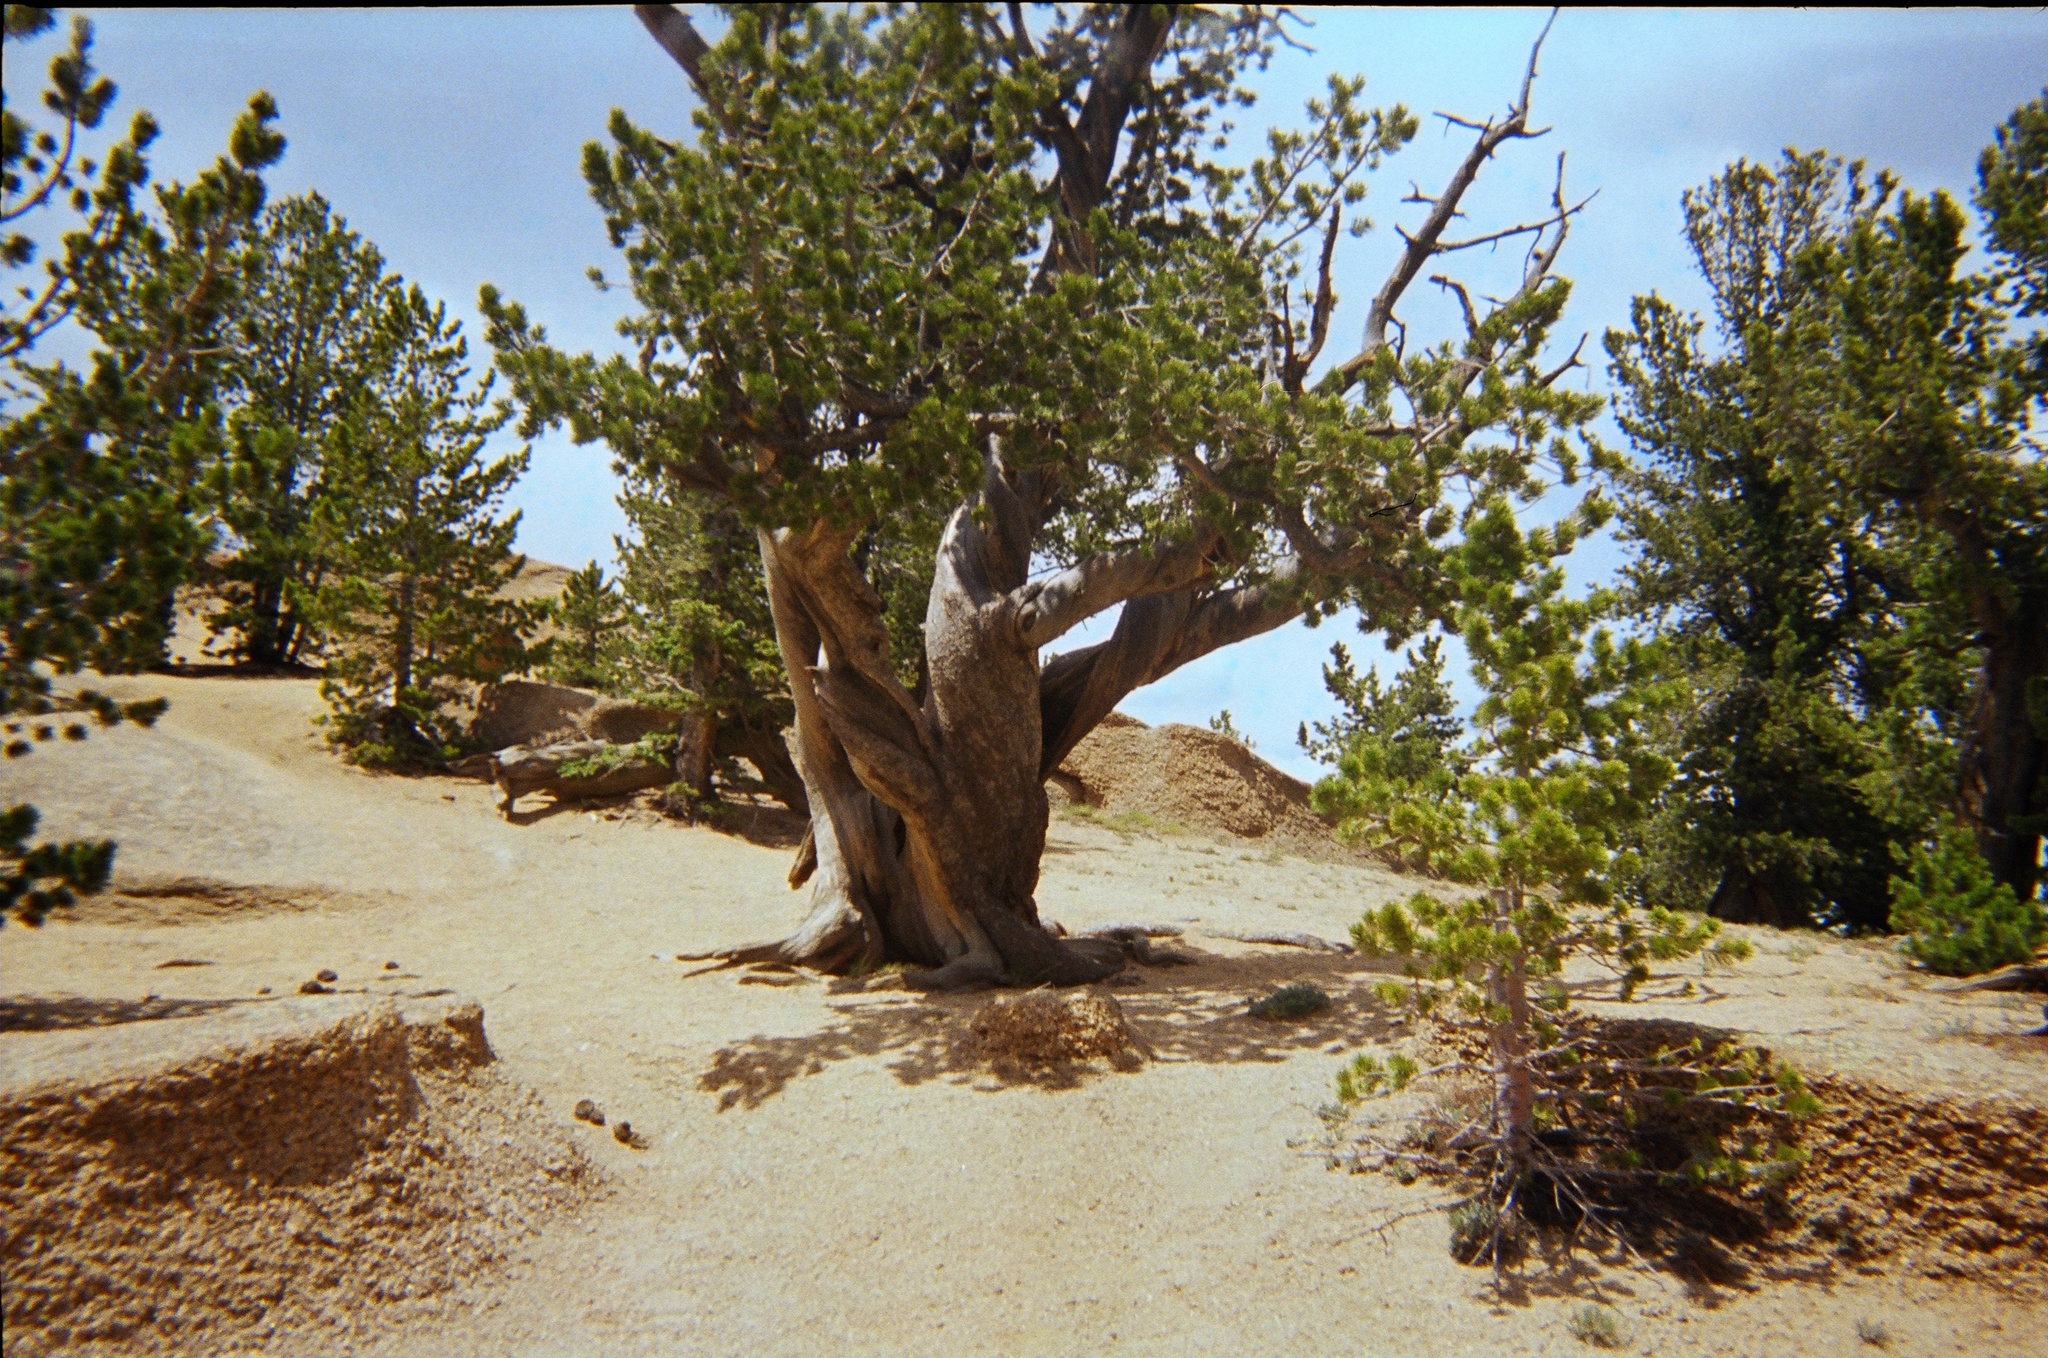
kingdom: Plantae
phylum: Tracheophyta
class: Pinopsida
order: Pinales
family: Pinaceae
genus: Pinus
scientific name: Pinus flexilis
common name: Limber pine
